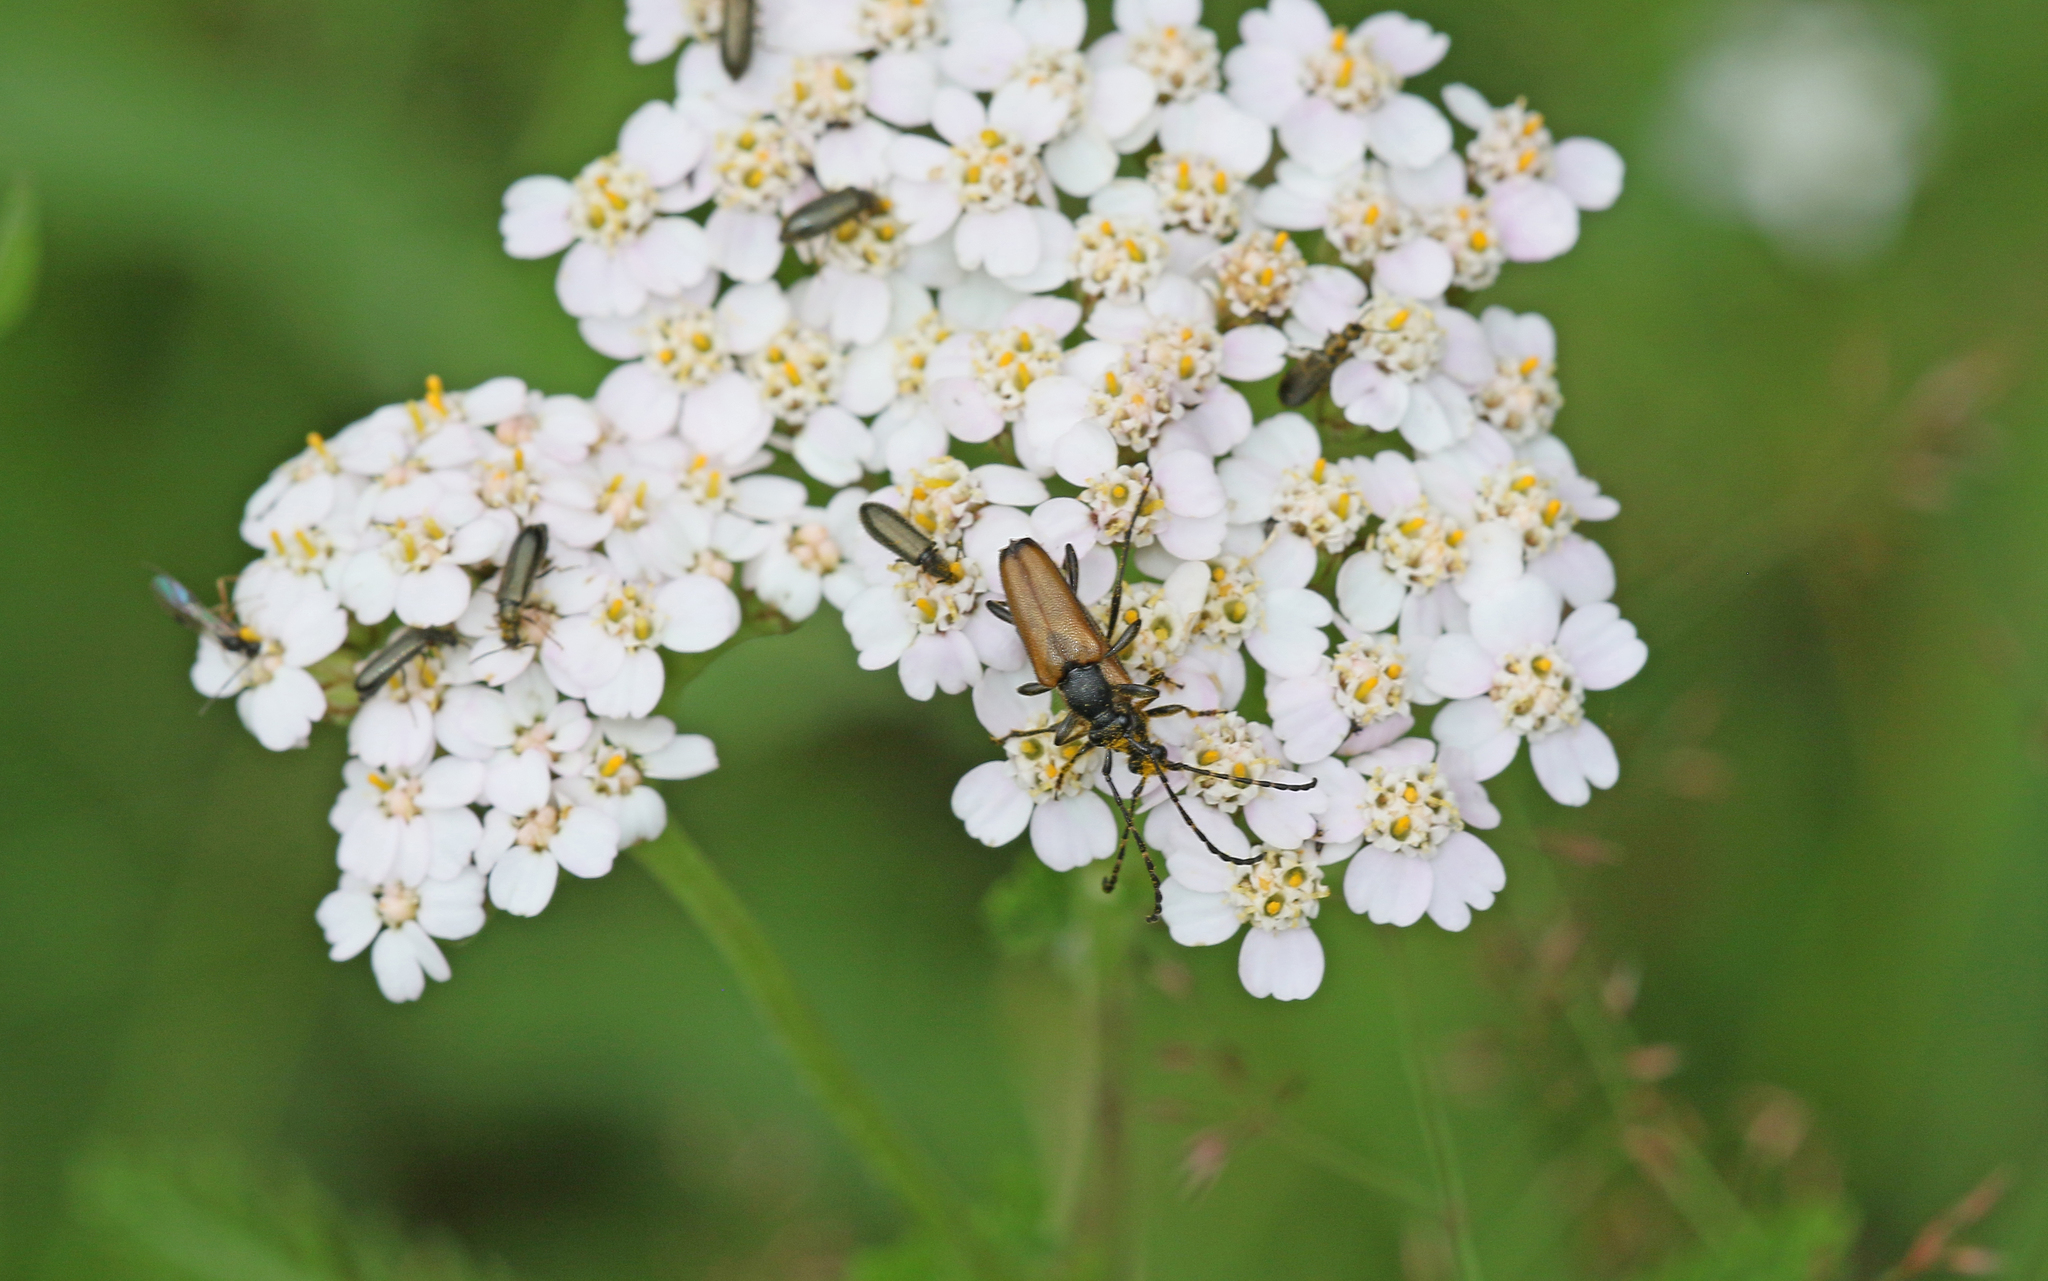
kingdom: Animalia
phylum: Arthropoda
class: Insecta
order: Coleoptera
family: Cerambycidae
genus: Paracorymbia
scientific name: Paracorymbia maculicornis
